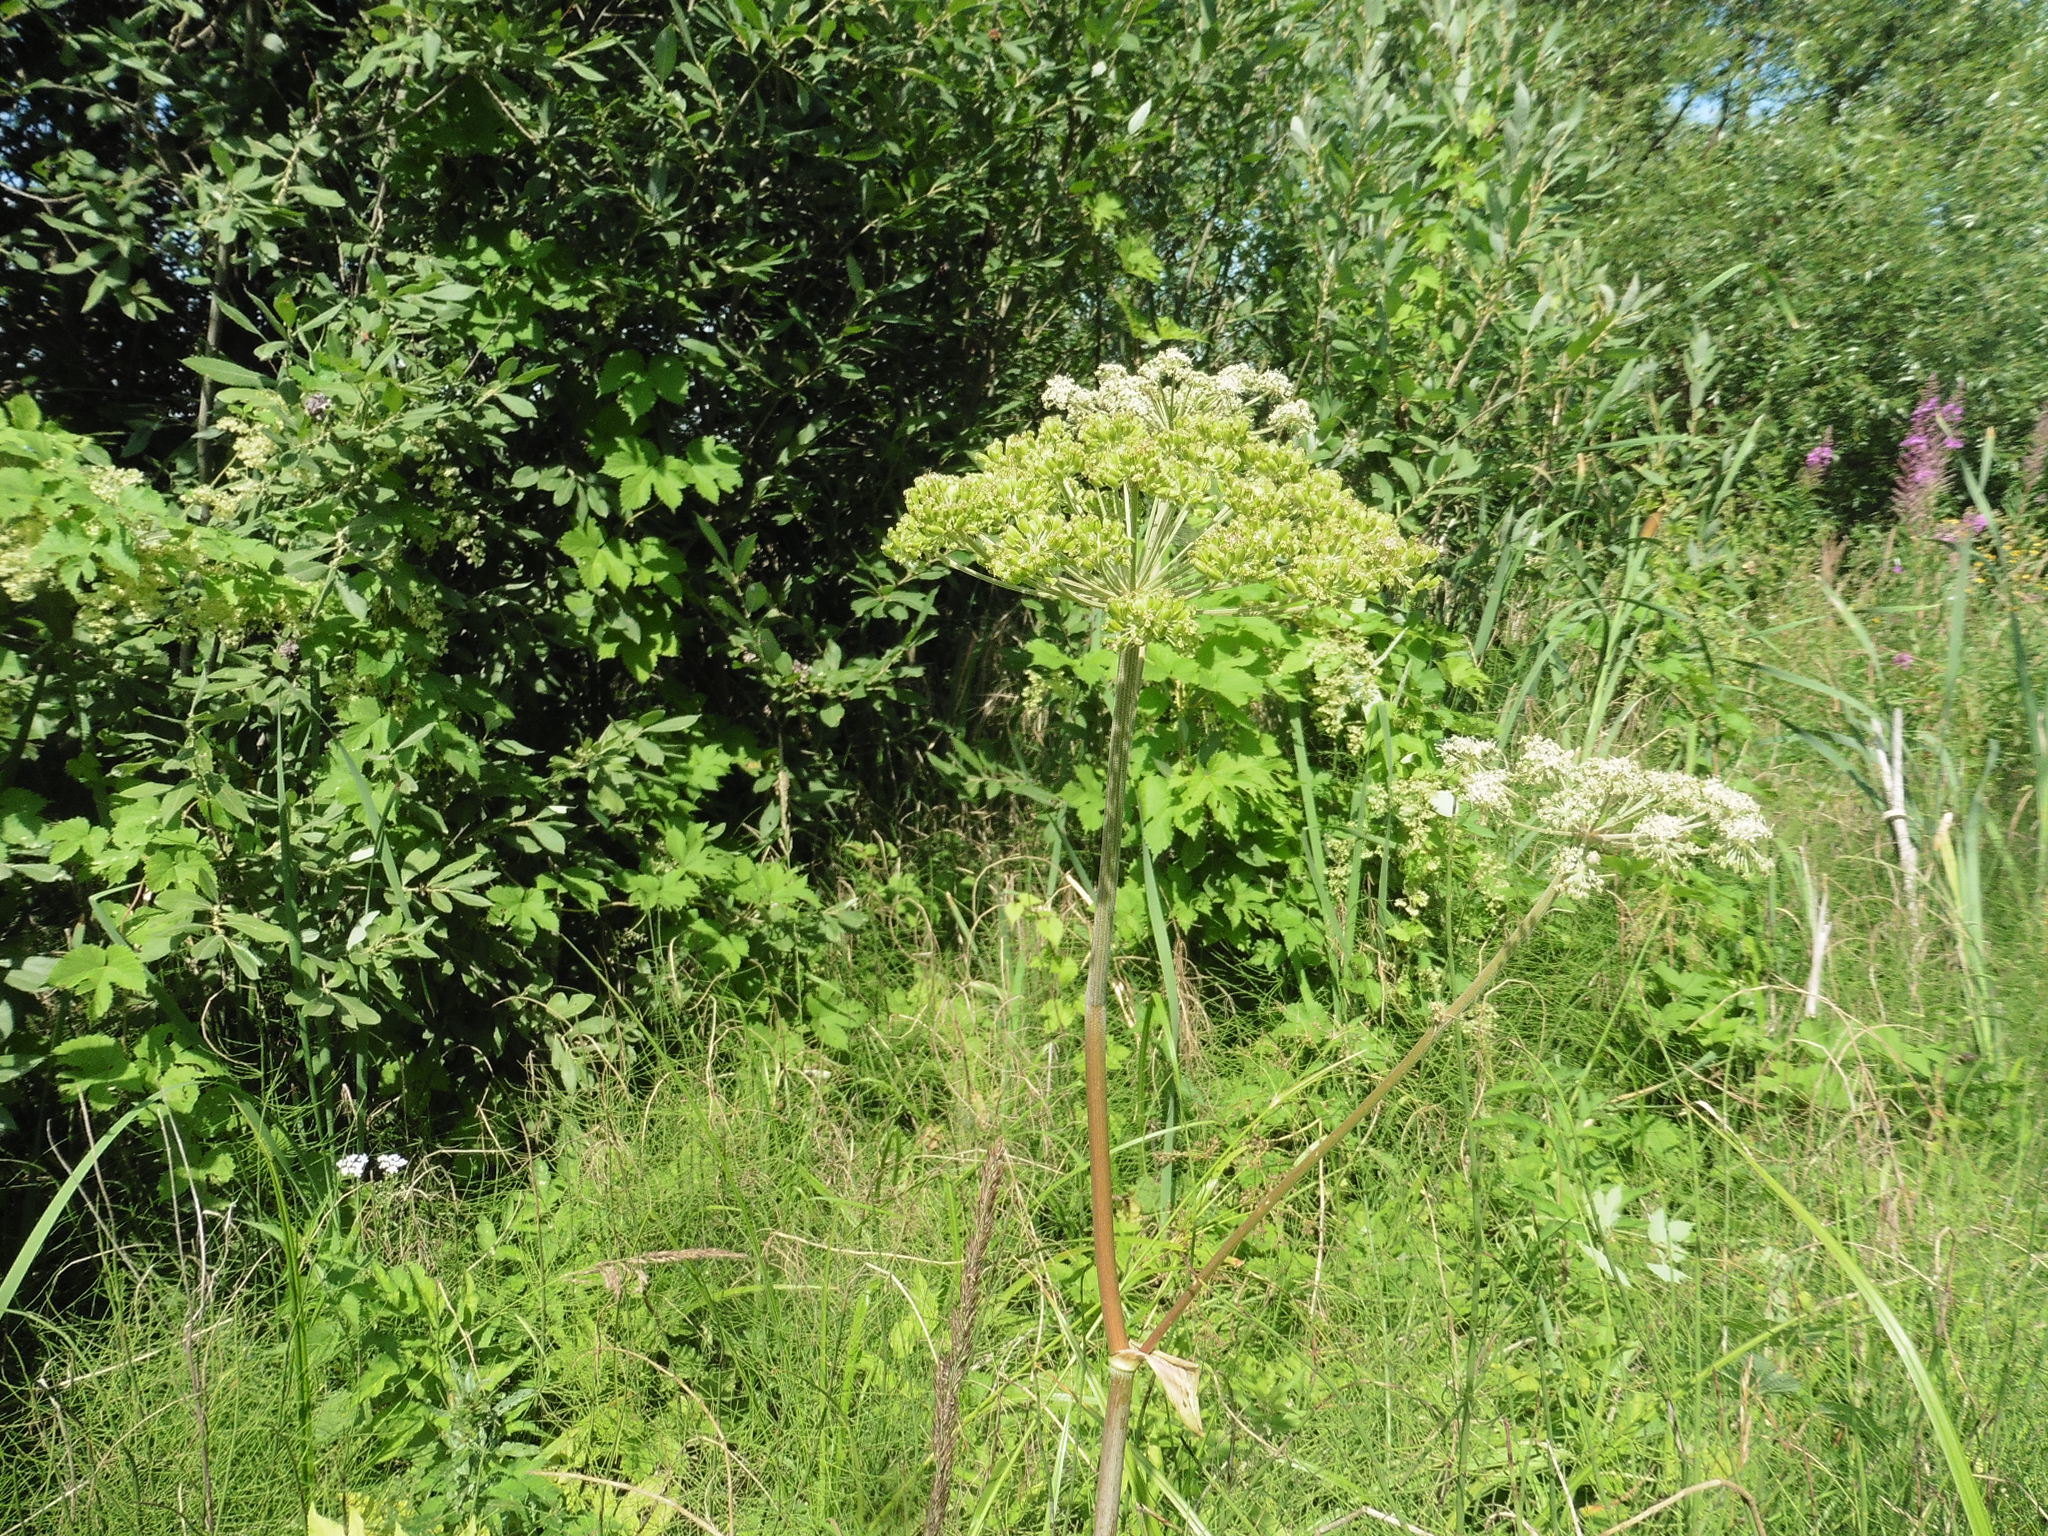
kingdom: Plantae
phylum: Tracheophyta
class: Magnoliopsida
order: Apiales
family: Apiaceae
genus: Angelica
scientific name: Angelica sylvestris
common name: Wild angelica
